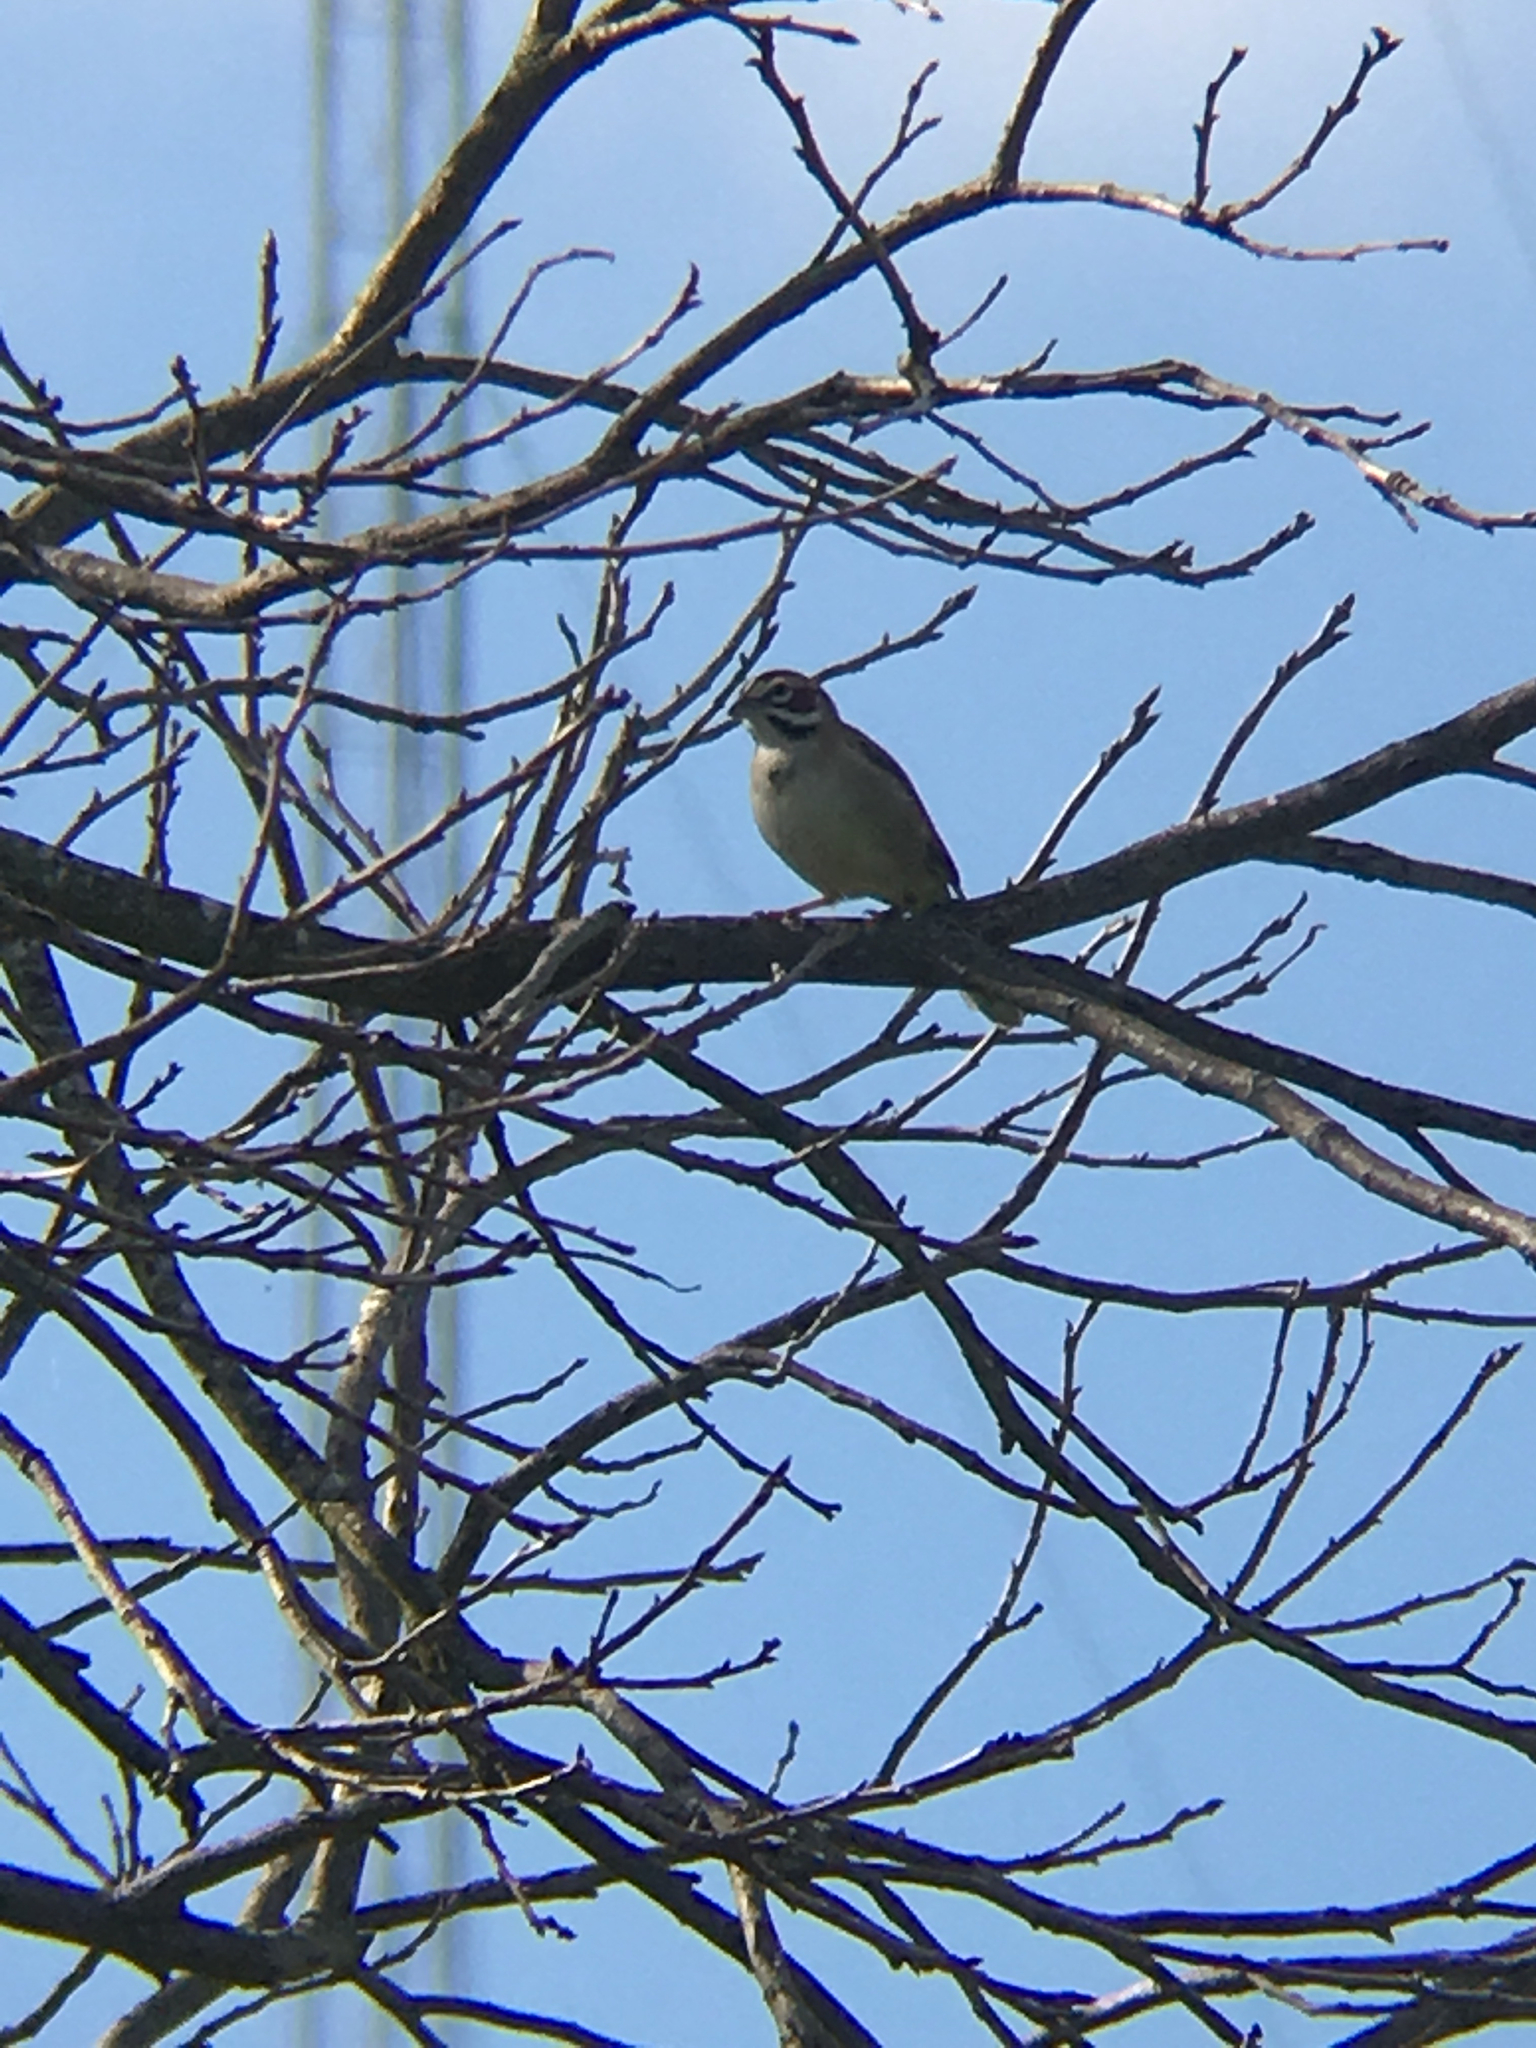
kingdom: Animalia
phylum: Chordata
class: Aves
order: Passeriformes
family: Passerellidae
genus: Chondestes
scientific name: Chondestes grammacus
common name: Lark sparrow
